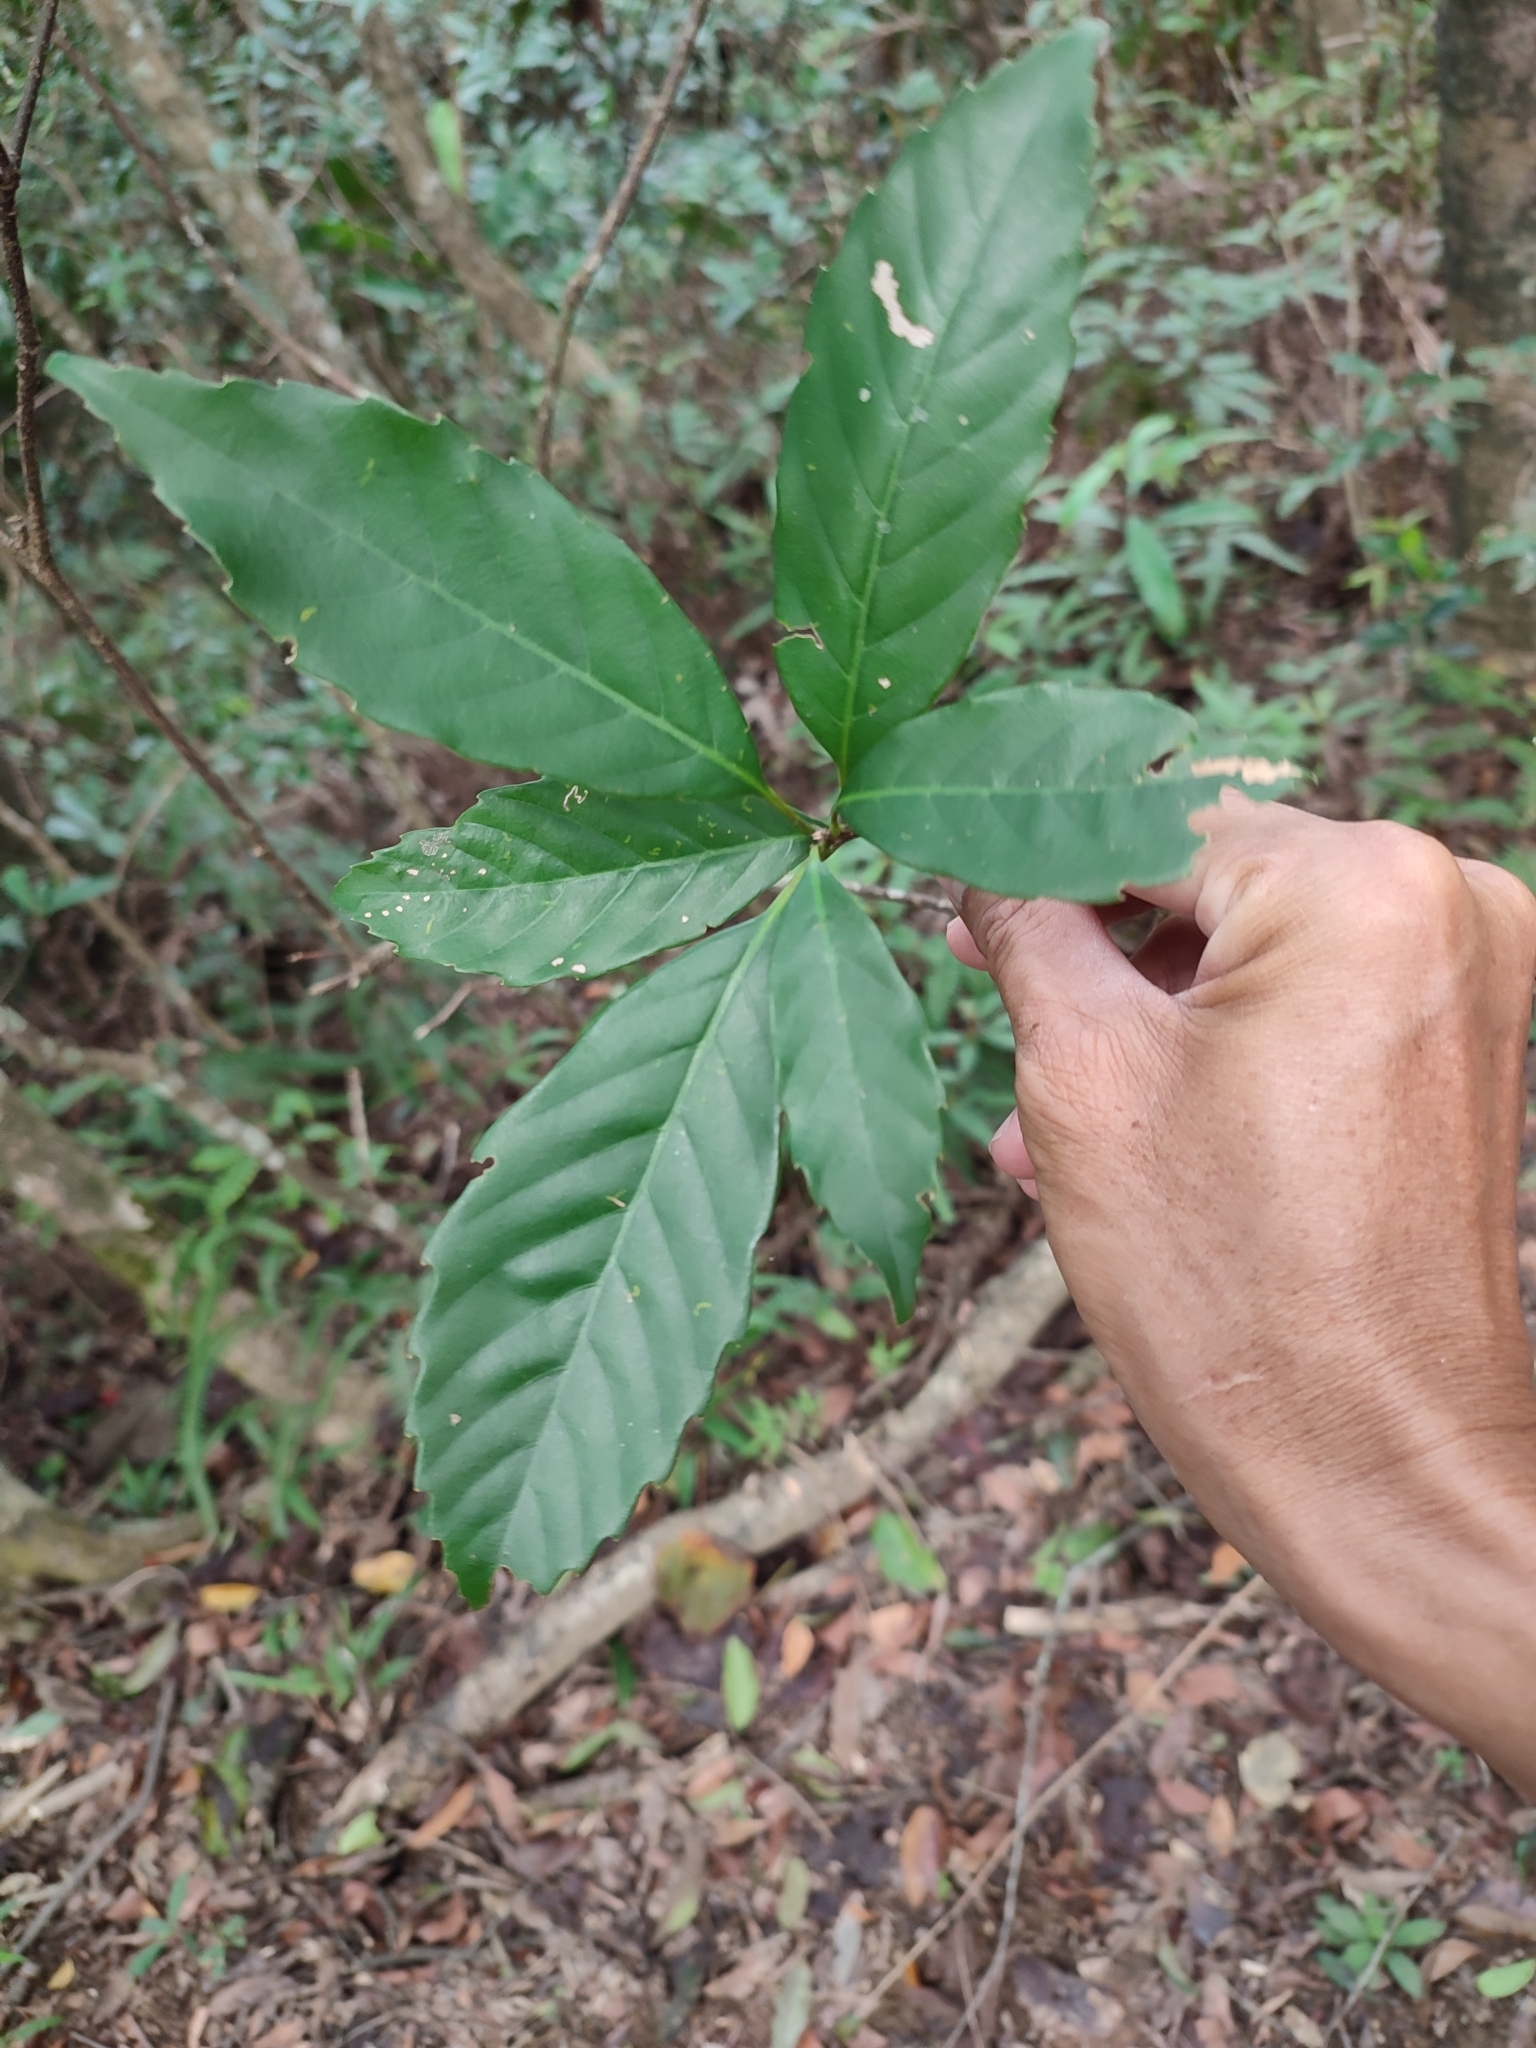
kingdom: Plantae
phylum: Tracheophyta
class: Magnoliopsida
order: Fagales
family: Fagaceae
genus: Quercus
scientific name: Quercus glauca
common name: Ring-cup oak
